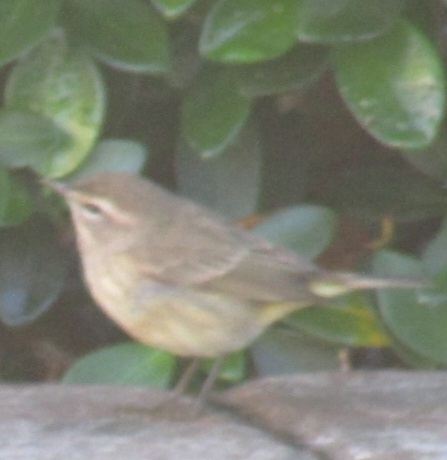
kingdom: Animalia
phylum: Chordata
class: Aves
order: Passeriformes
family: Parulidae
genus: Setophaga
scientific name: Setophaga palmarum
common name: Palm warbler
